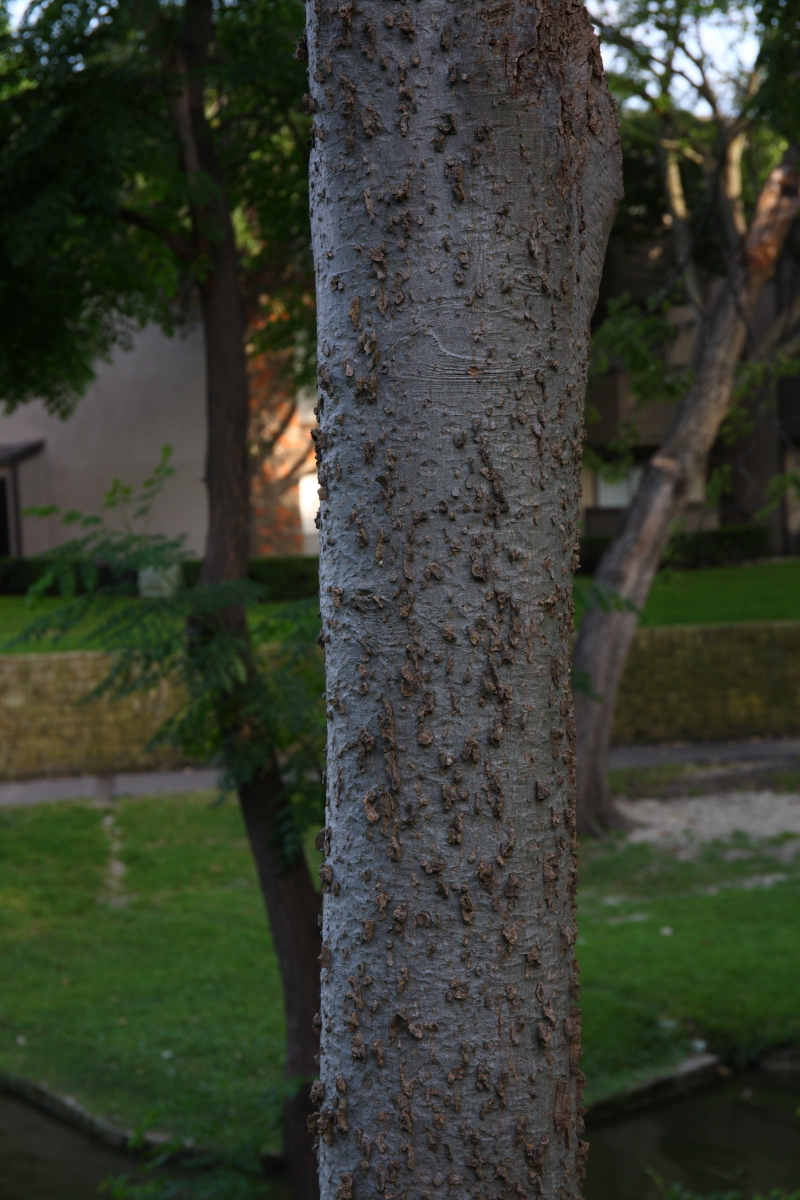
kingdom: Plantae
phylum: Tracheophyta
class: Magnoliopsida
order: Rosales
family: Cannabaceae
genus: Celtis
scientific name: Celtis laevigata
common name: Sugarberry
